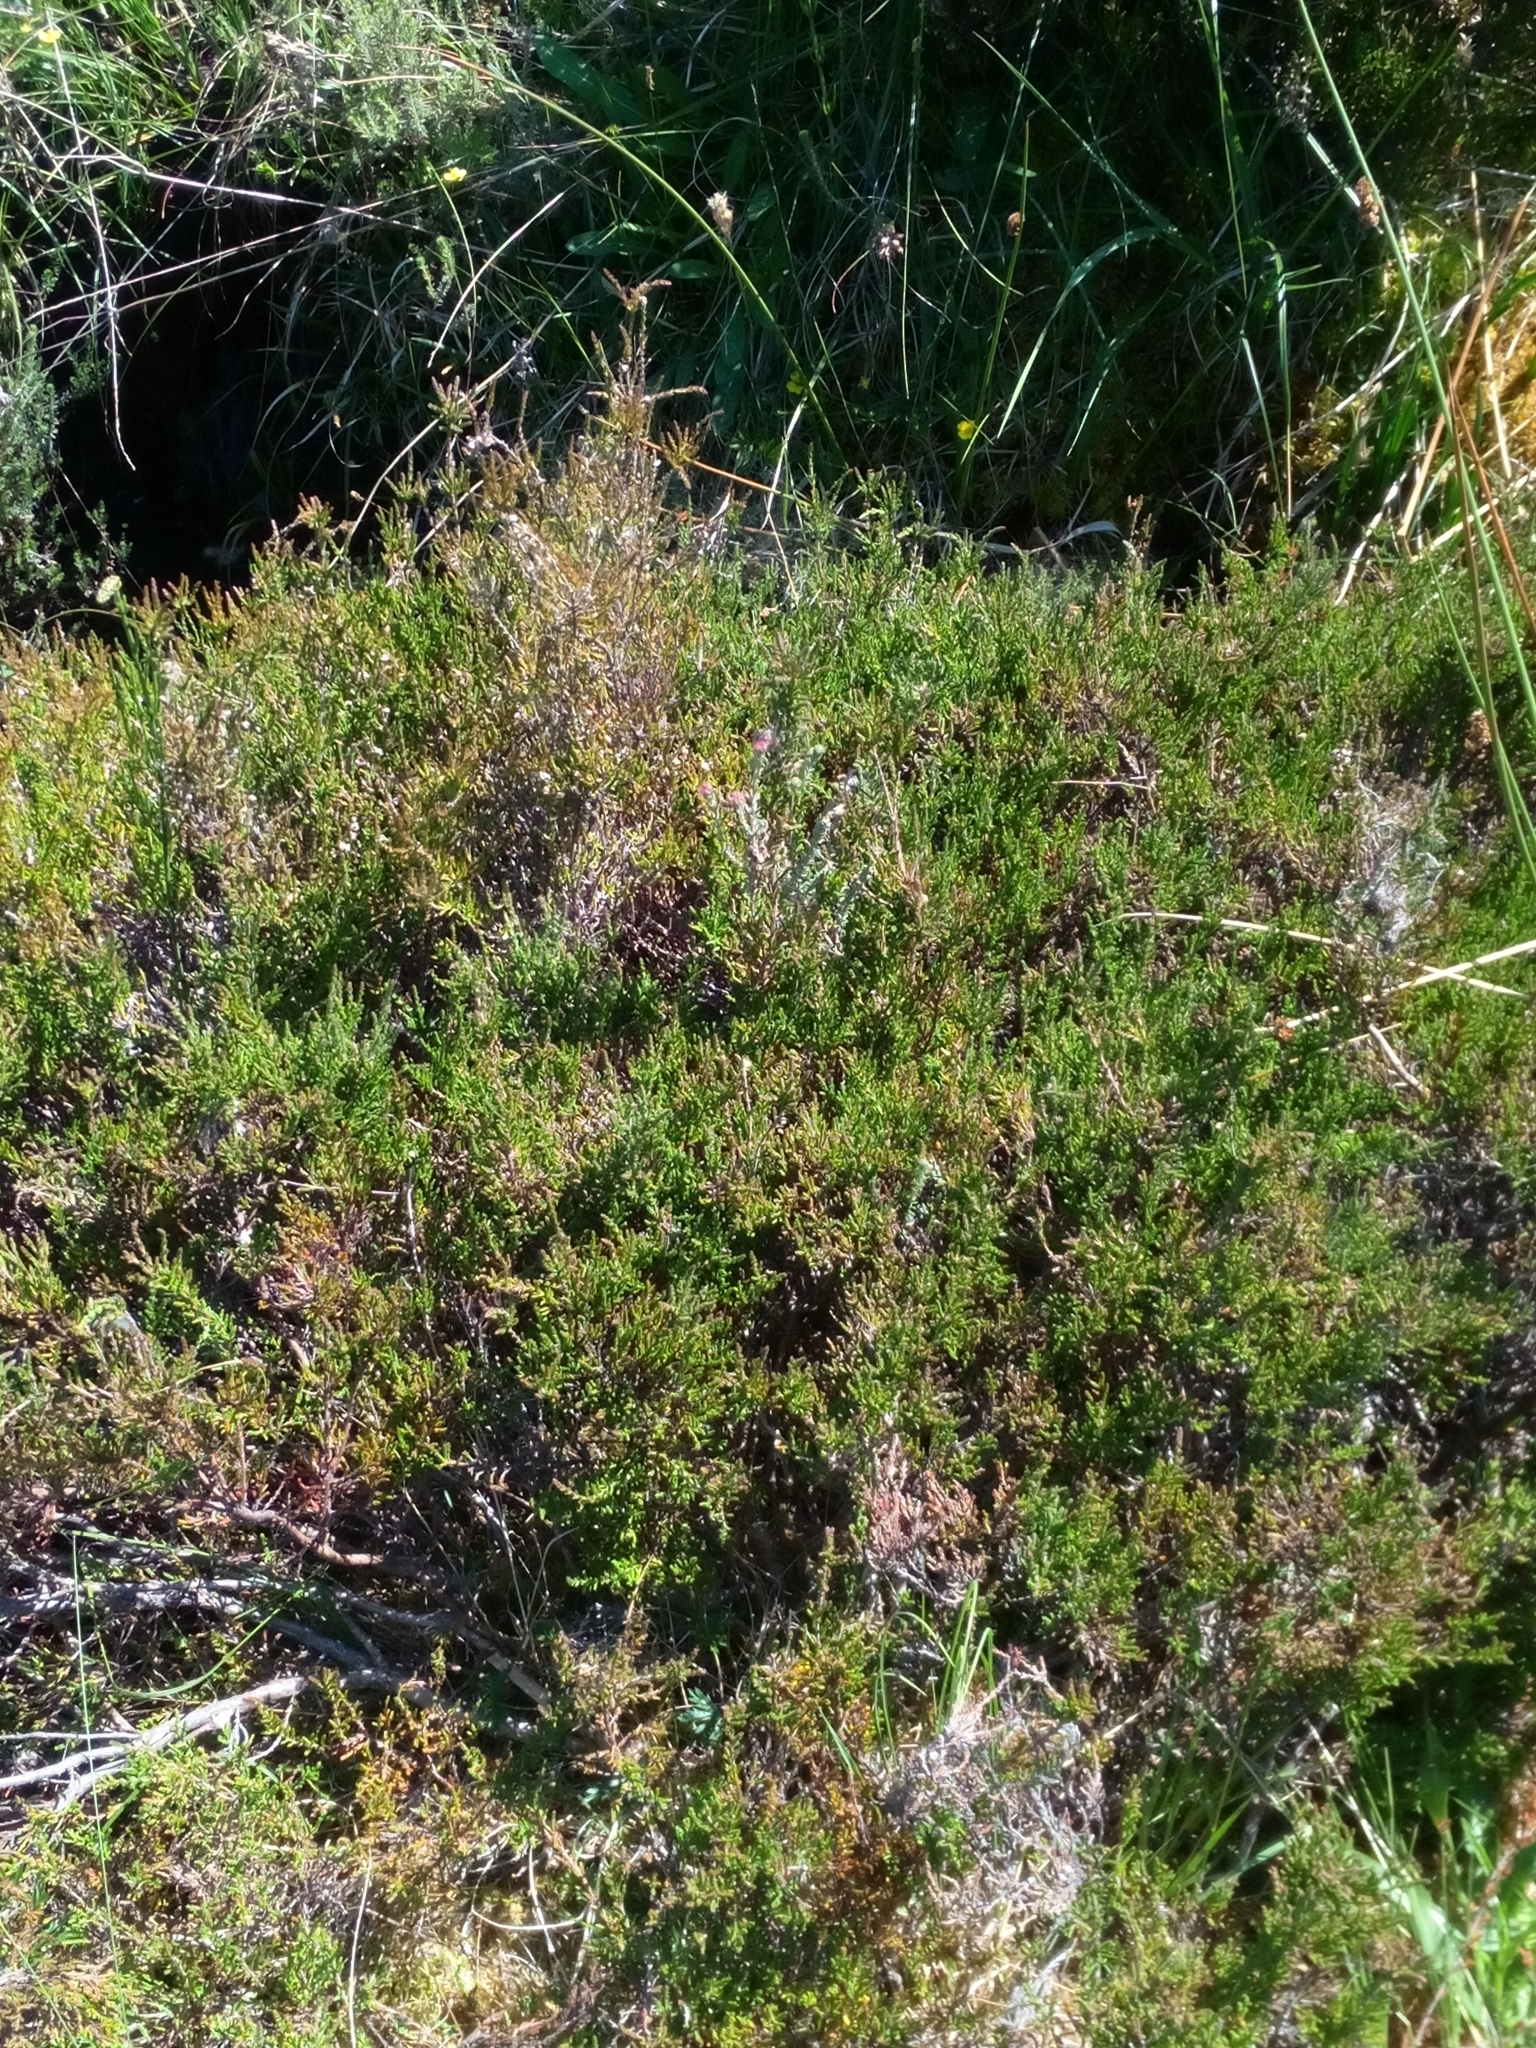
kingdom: Plantae
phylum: Tracheophyta
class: Magnoliopsida
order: Ericales
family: Ericaceae
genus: Calluna
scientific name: Calluna vulgaris
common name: Heather
